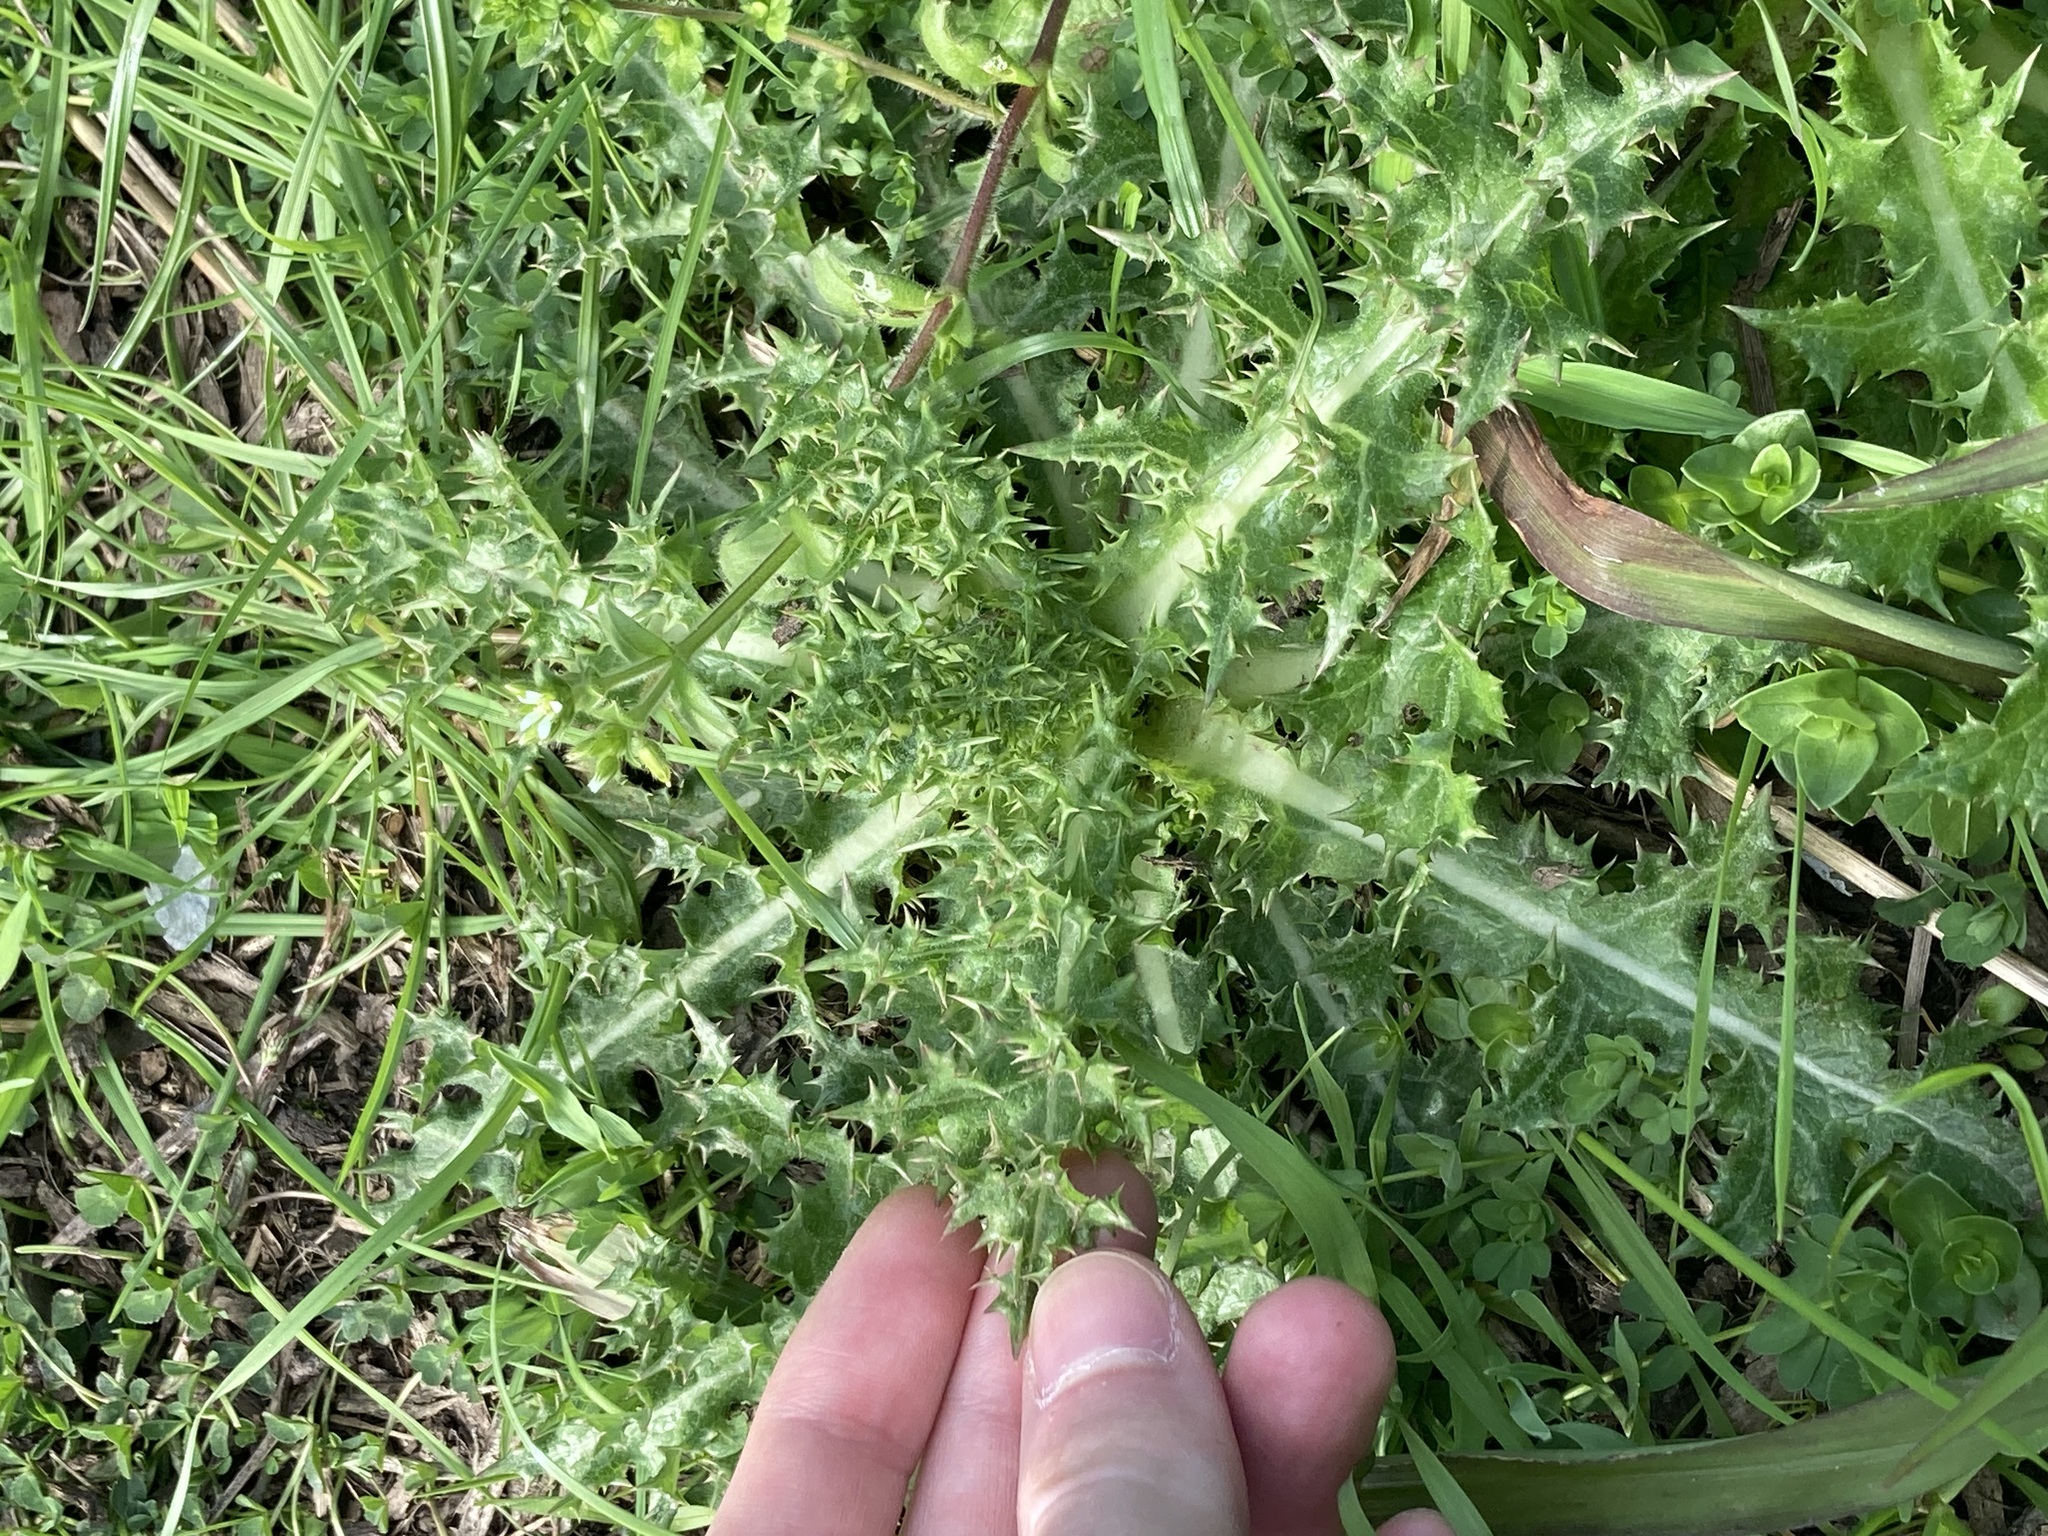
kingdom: Plantae
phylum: Tracheophyta
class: Magnoliopsida
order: Asterales
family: Asteraceae
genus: Sonchus
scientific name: Sonchus asper
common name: Prickly sow-thistle
